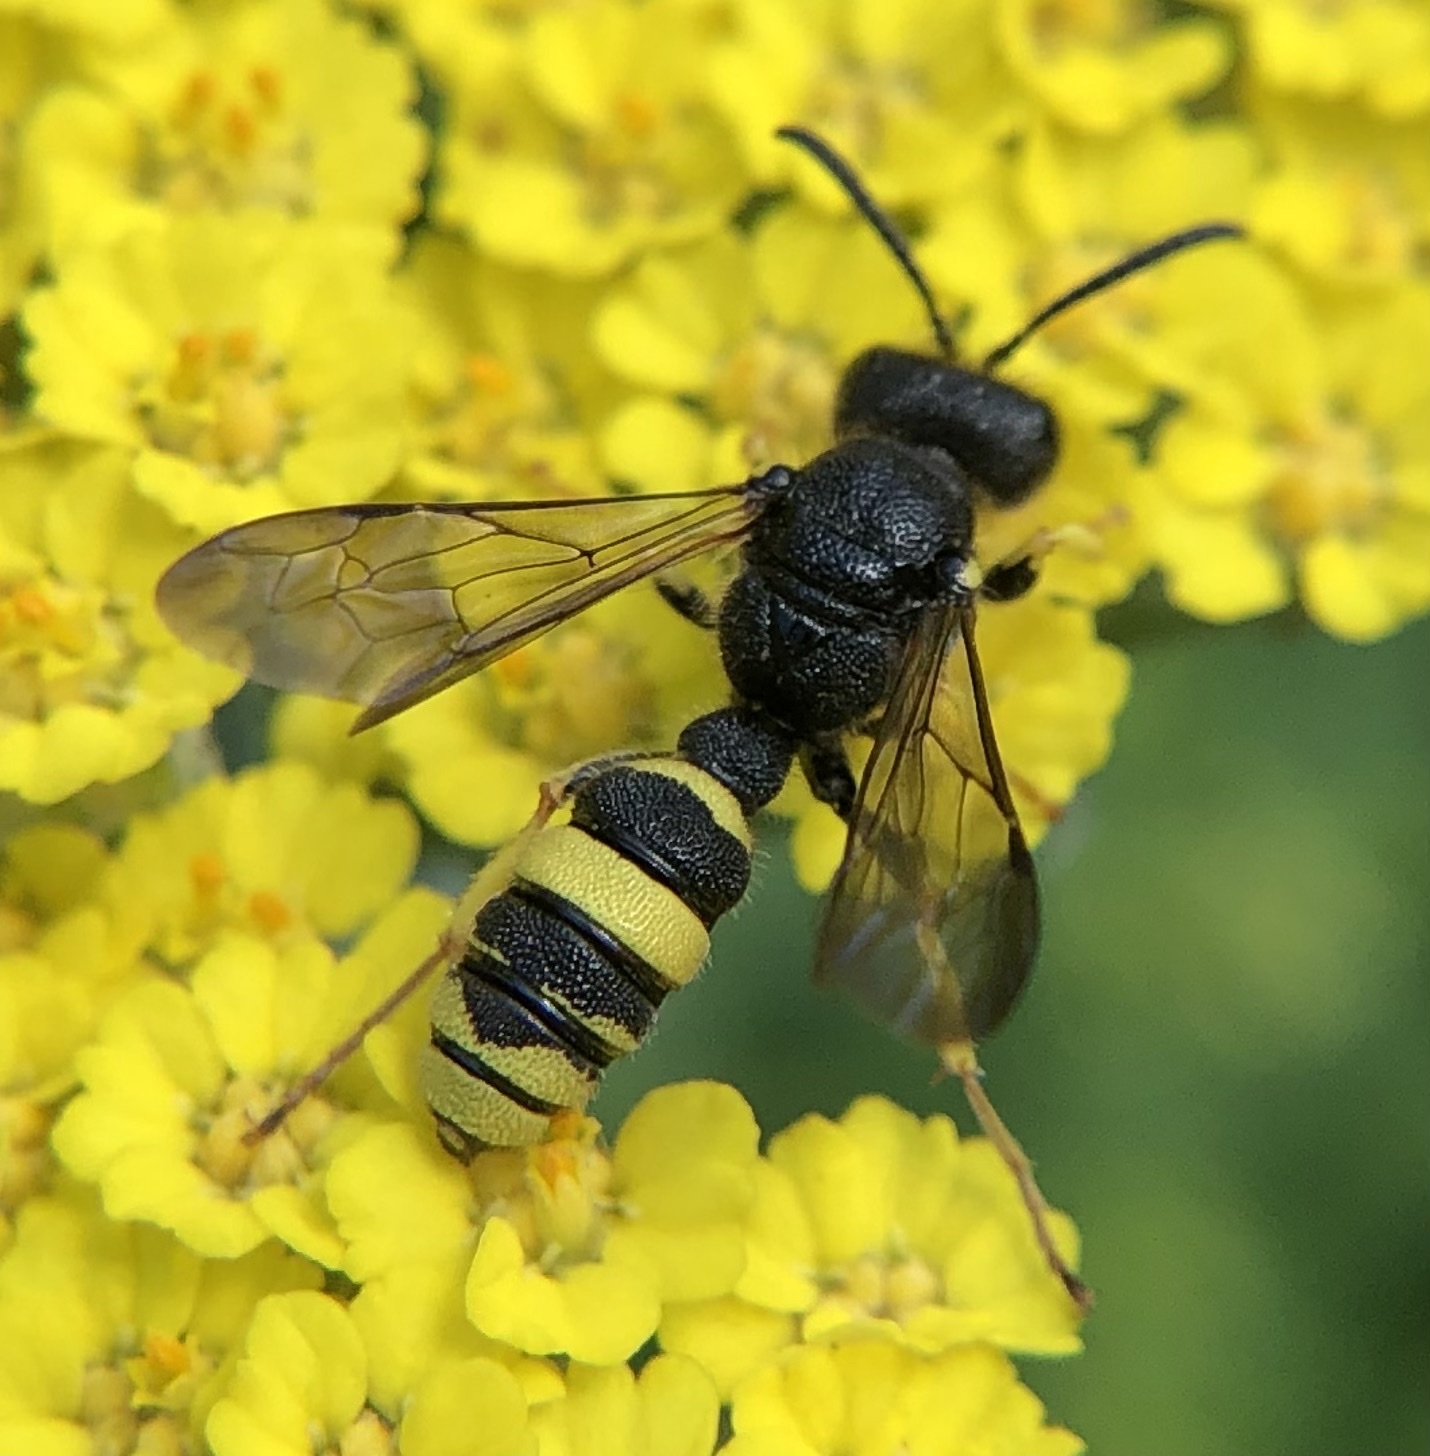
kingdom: Animalia
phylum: Arthropoda
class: Insecta
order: Hymenoptera
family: Crabronidae
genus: Cerceris
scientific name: Cerceris rybyensis
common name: Ornate tailed digger wasp
